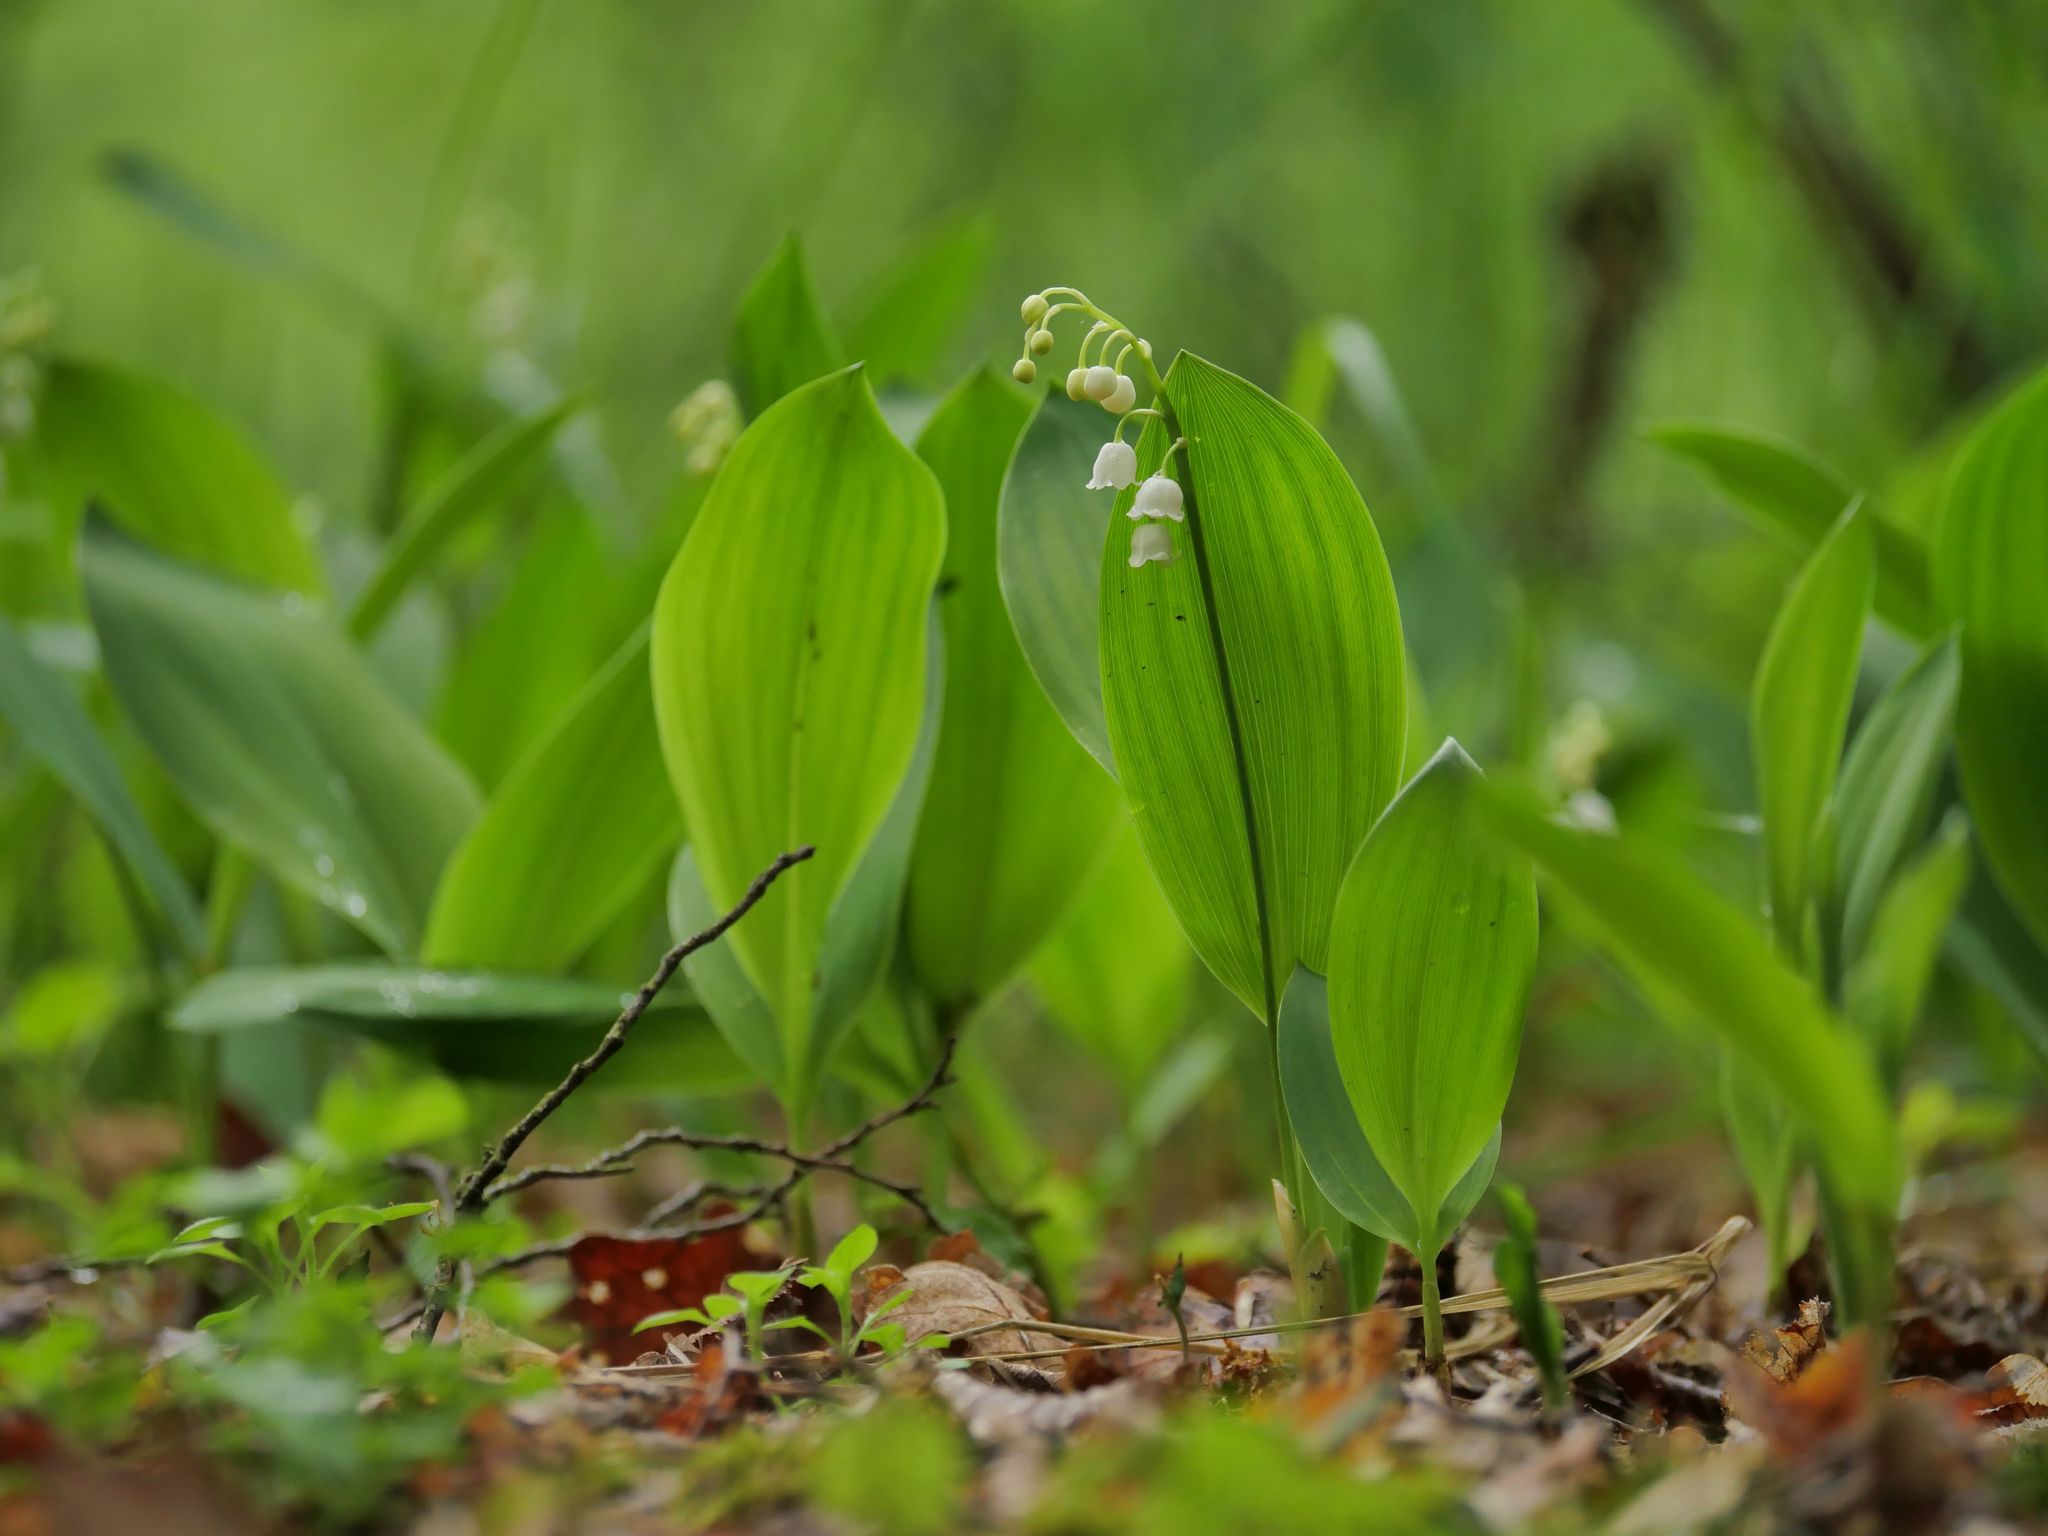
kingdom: Plantae
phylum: Tracheophyta
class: Liliopsida
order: Asparagales
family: Asparagaceae
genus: Convallaria
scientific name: Convallaria majalis
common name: Lily-of-the-valley
